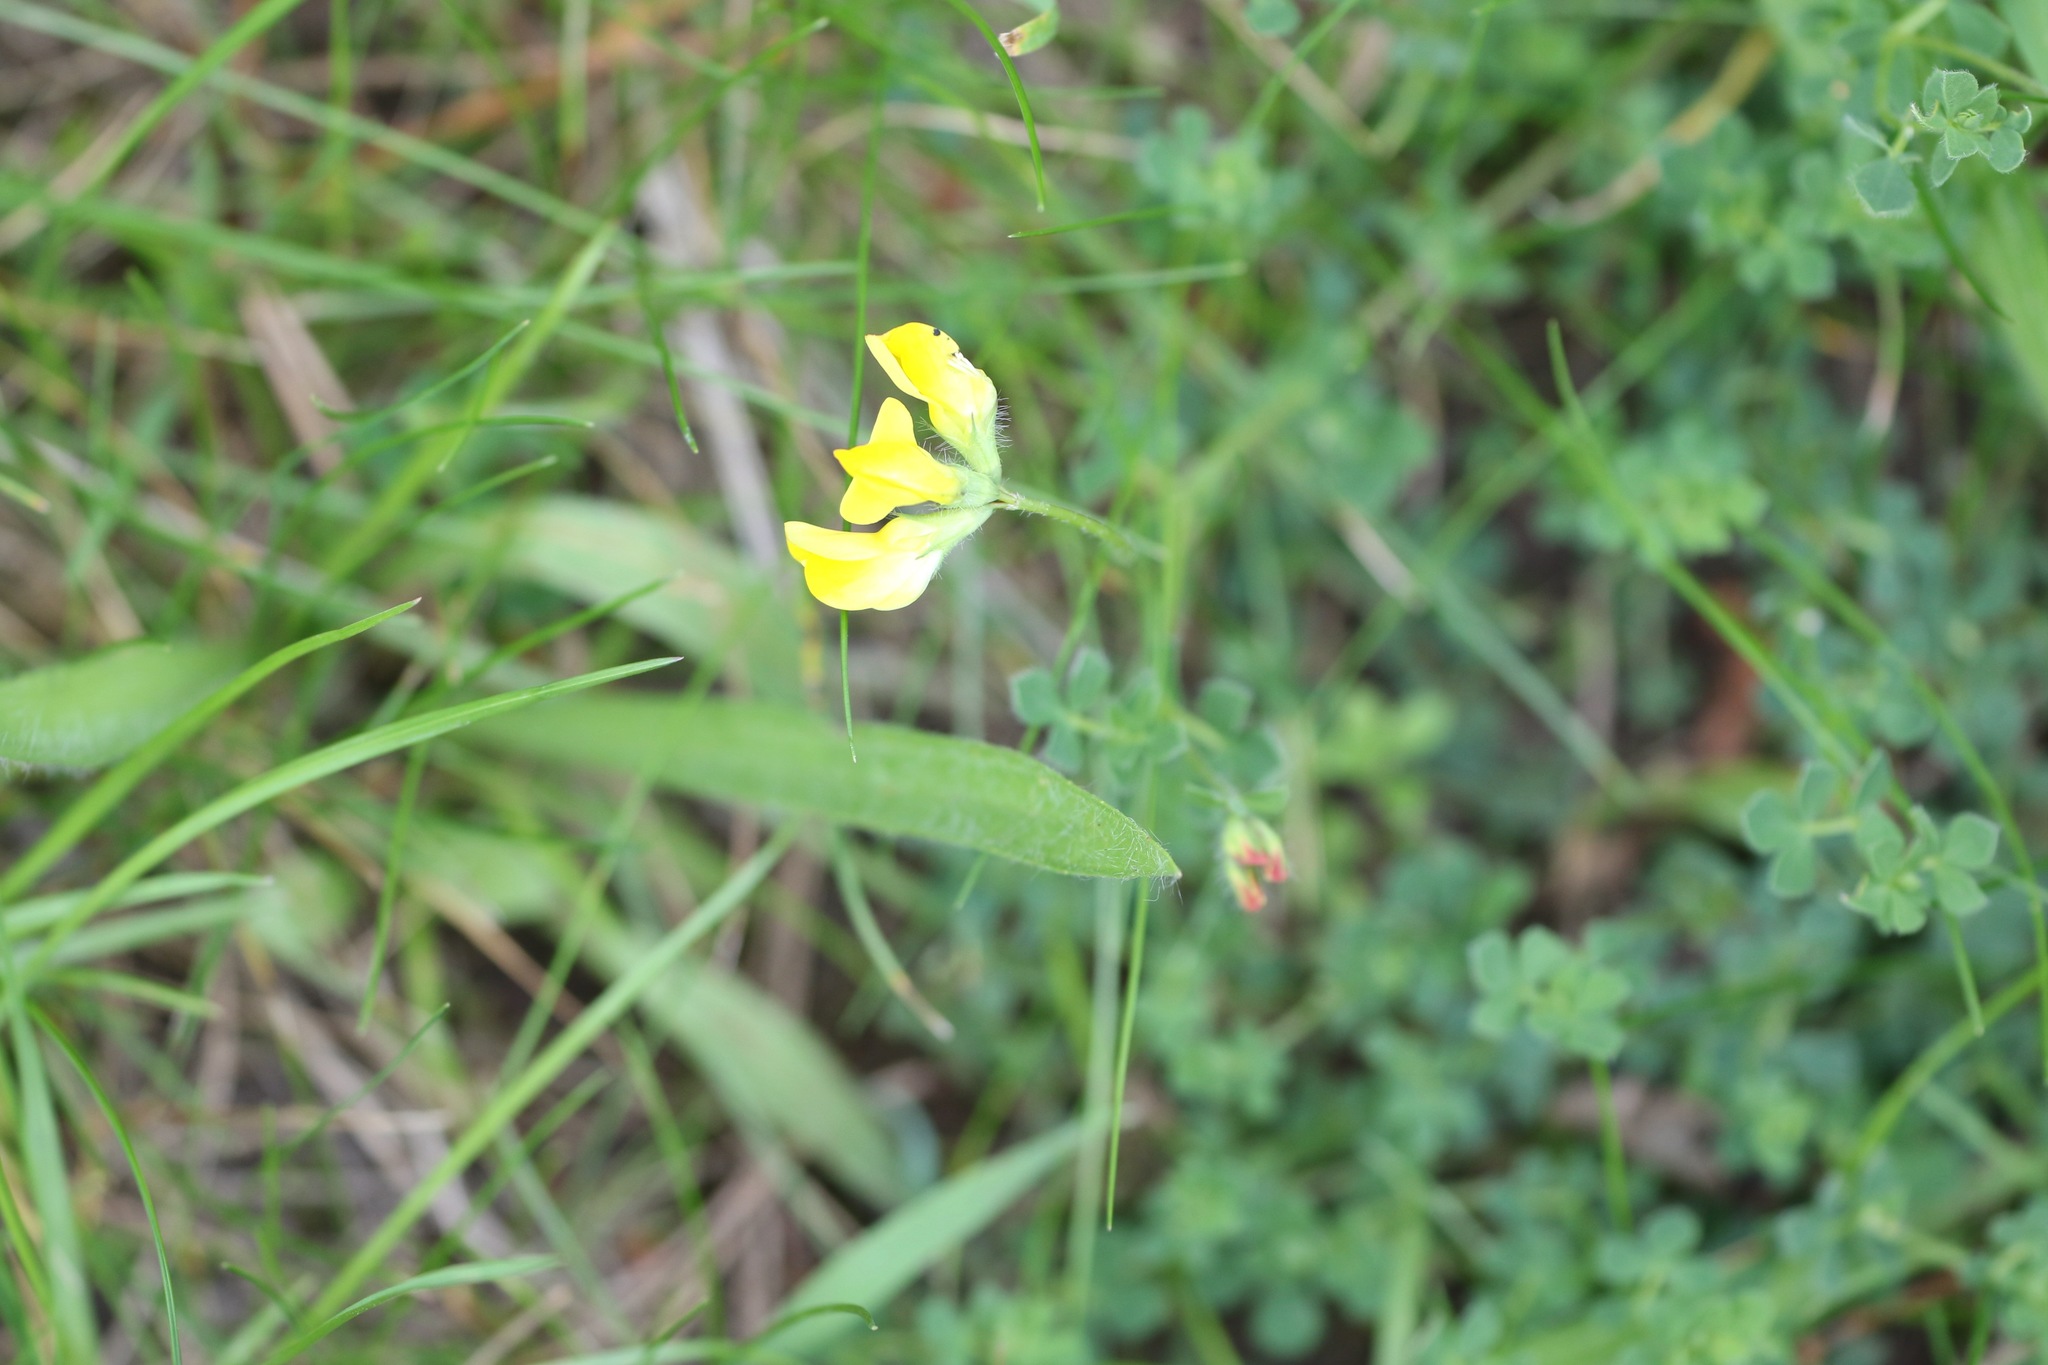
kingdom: Plantae
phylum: Tracheophyta
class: Magnoliopsida
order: Fabales
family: Fabaceae
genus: Lathyrus
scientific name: Lathyrus pratensis
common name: Meadow vetchling
